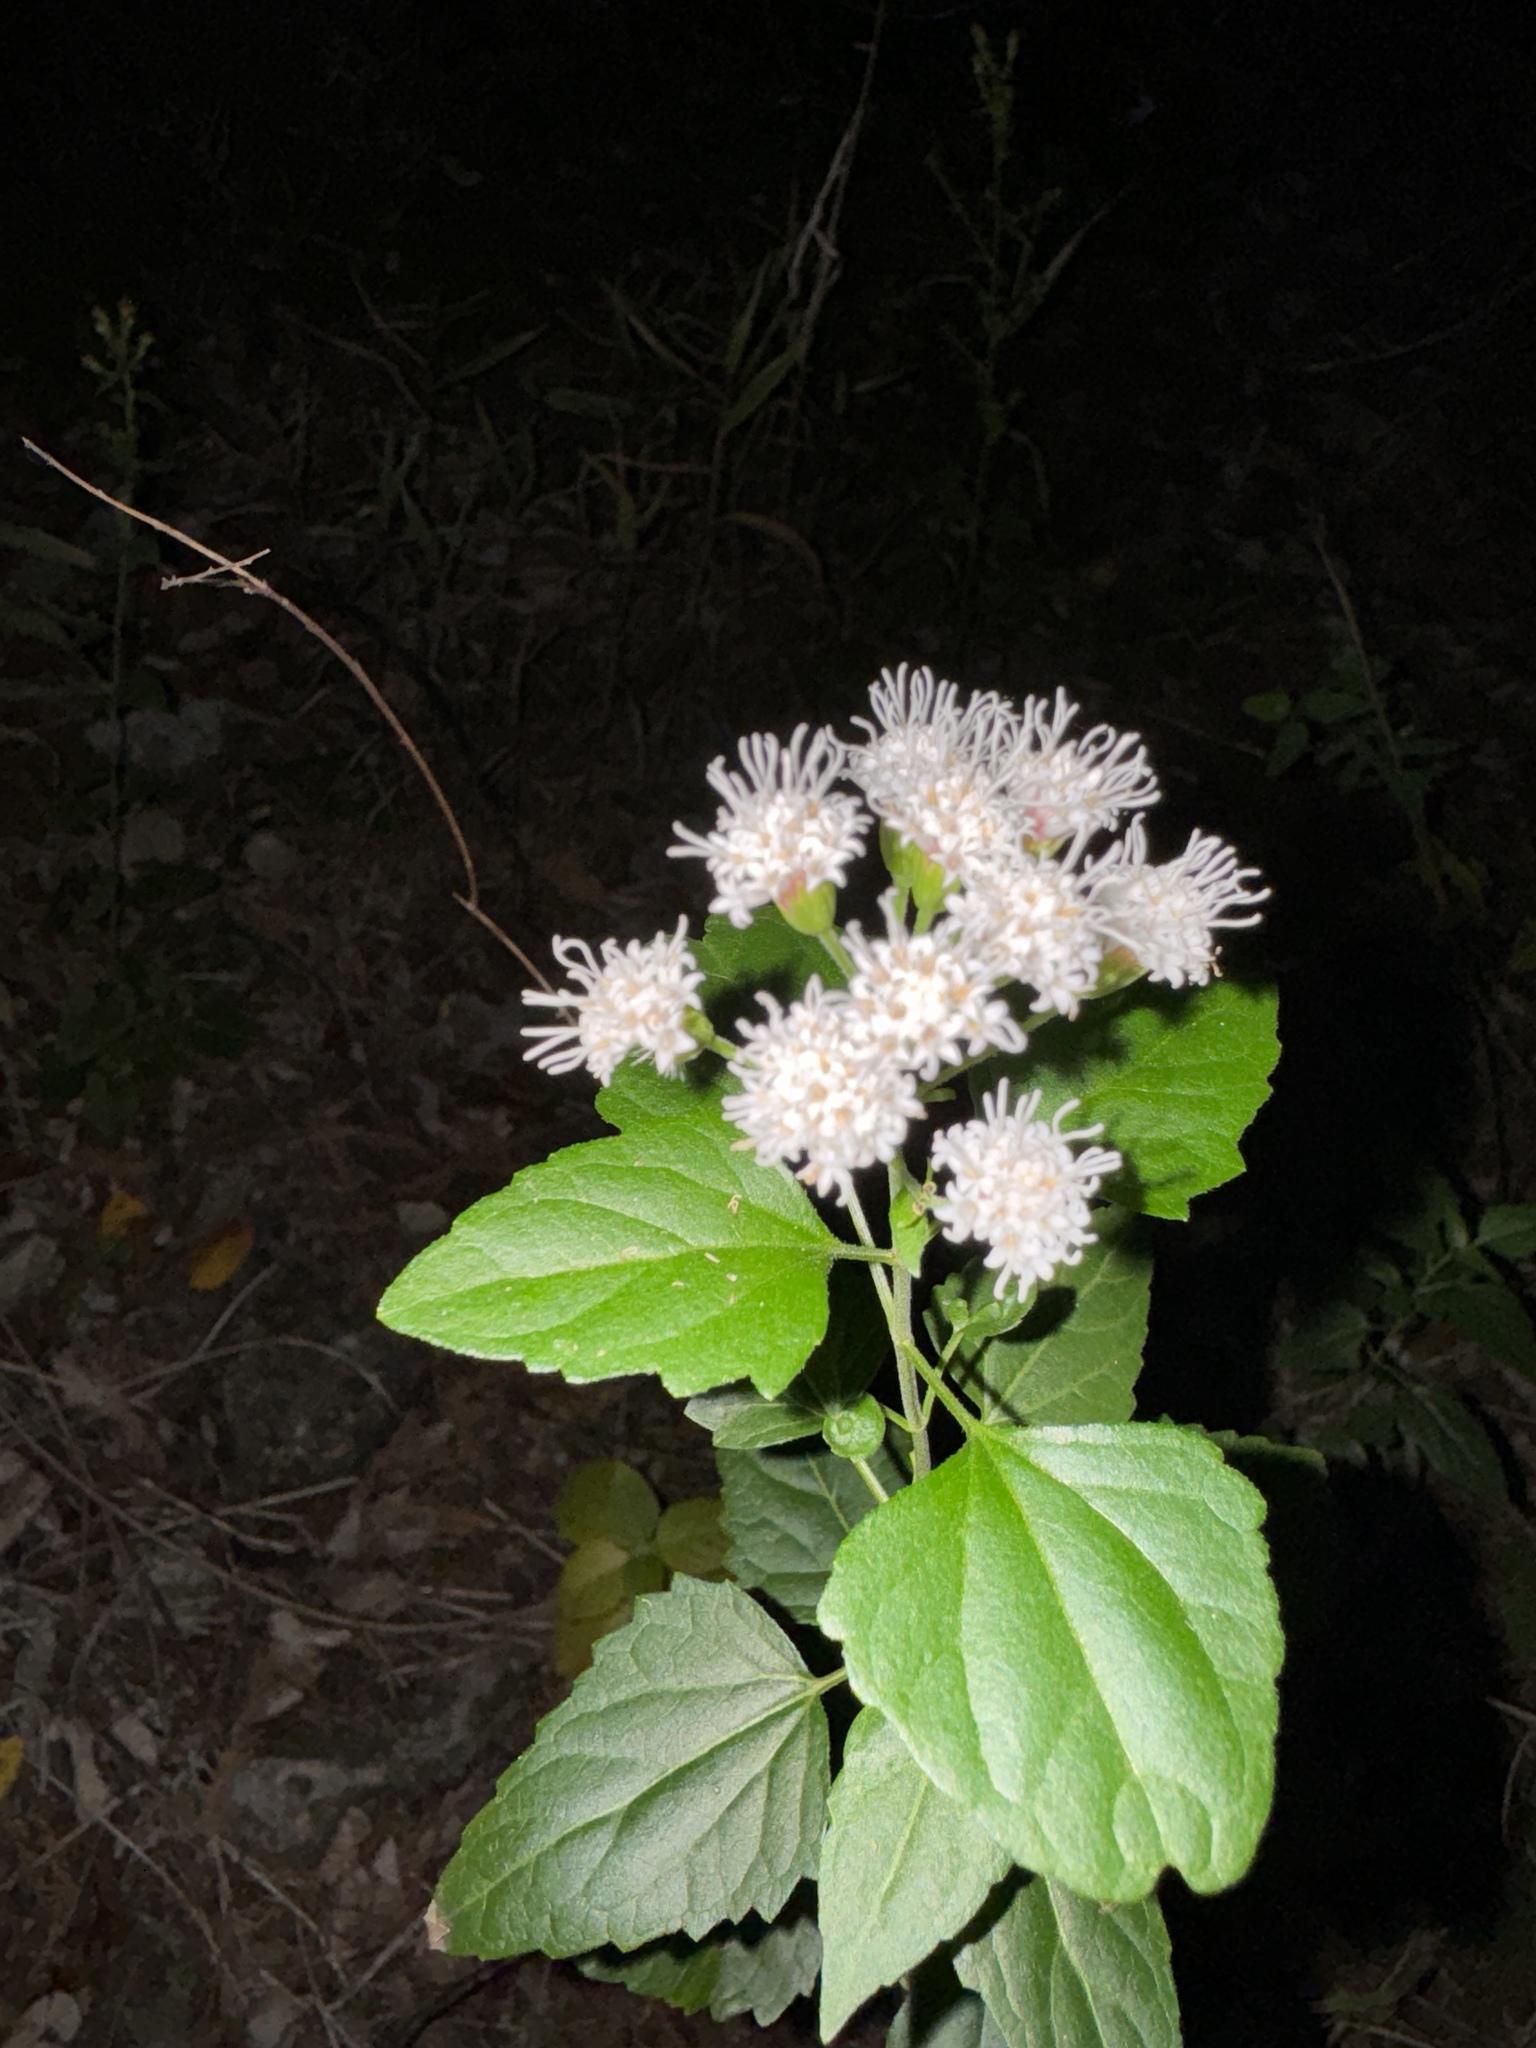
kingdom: Plantae
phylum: Tracheophyta
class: Magnoliopsida
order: Asterales
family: Asteraceae
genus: Ageratina
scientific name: Ageratina havanensis
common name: Havana snakeroot
